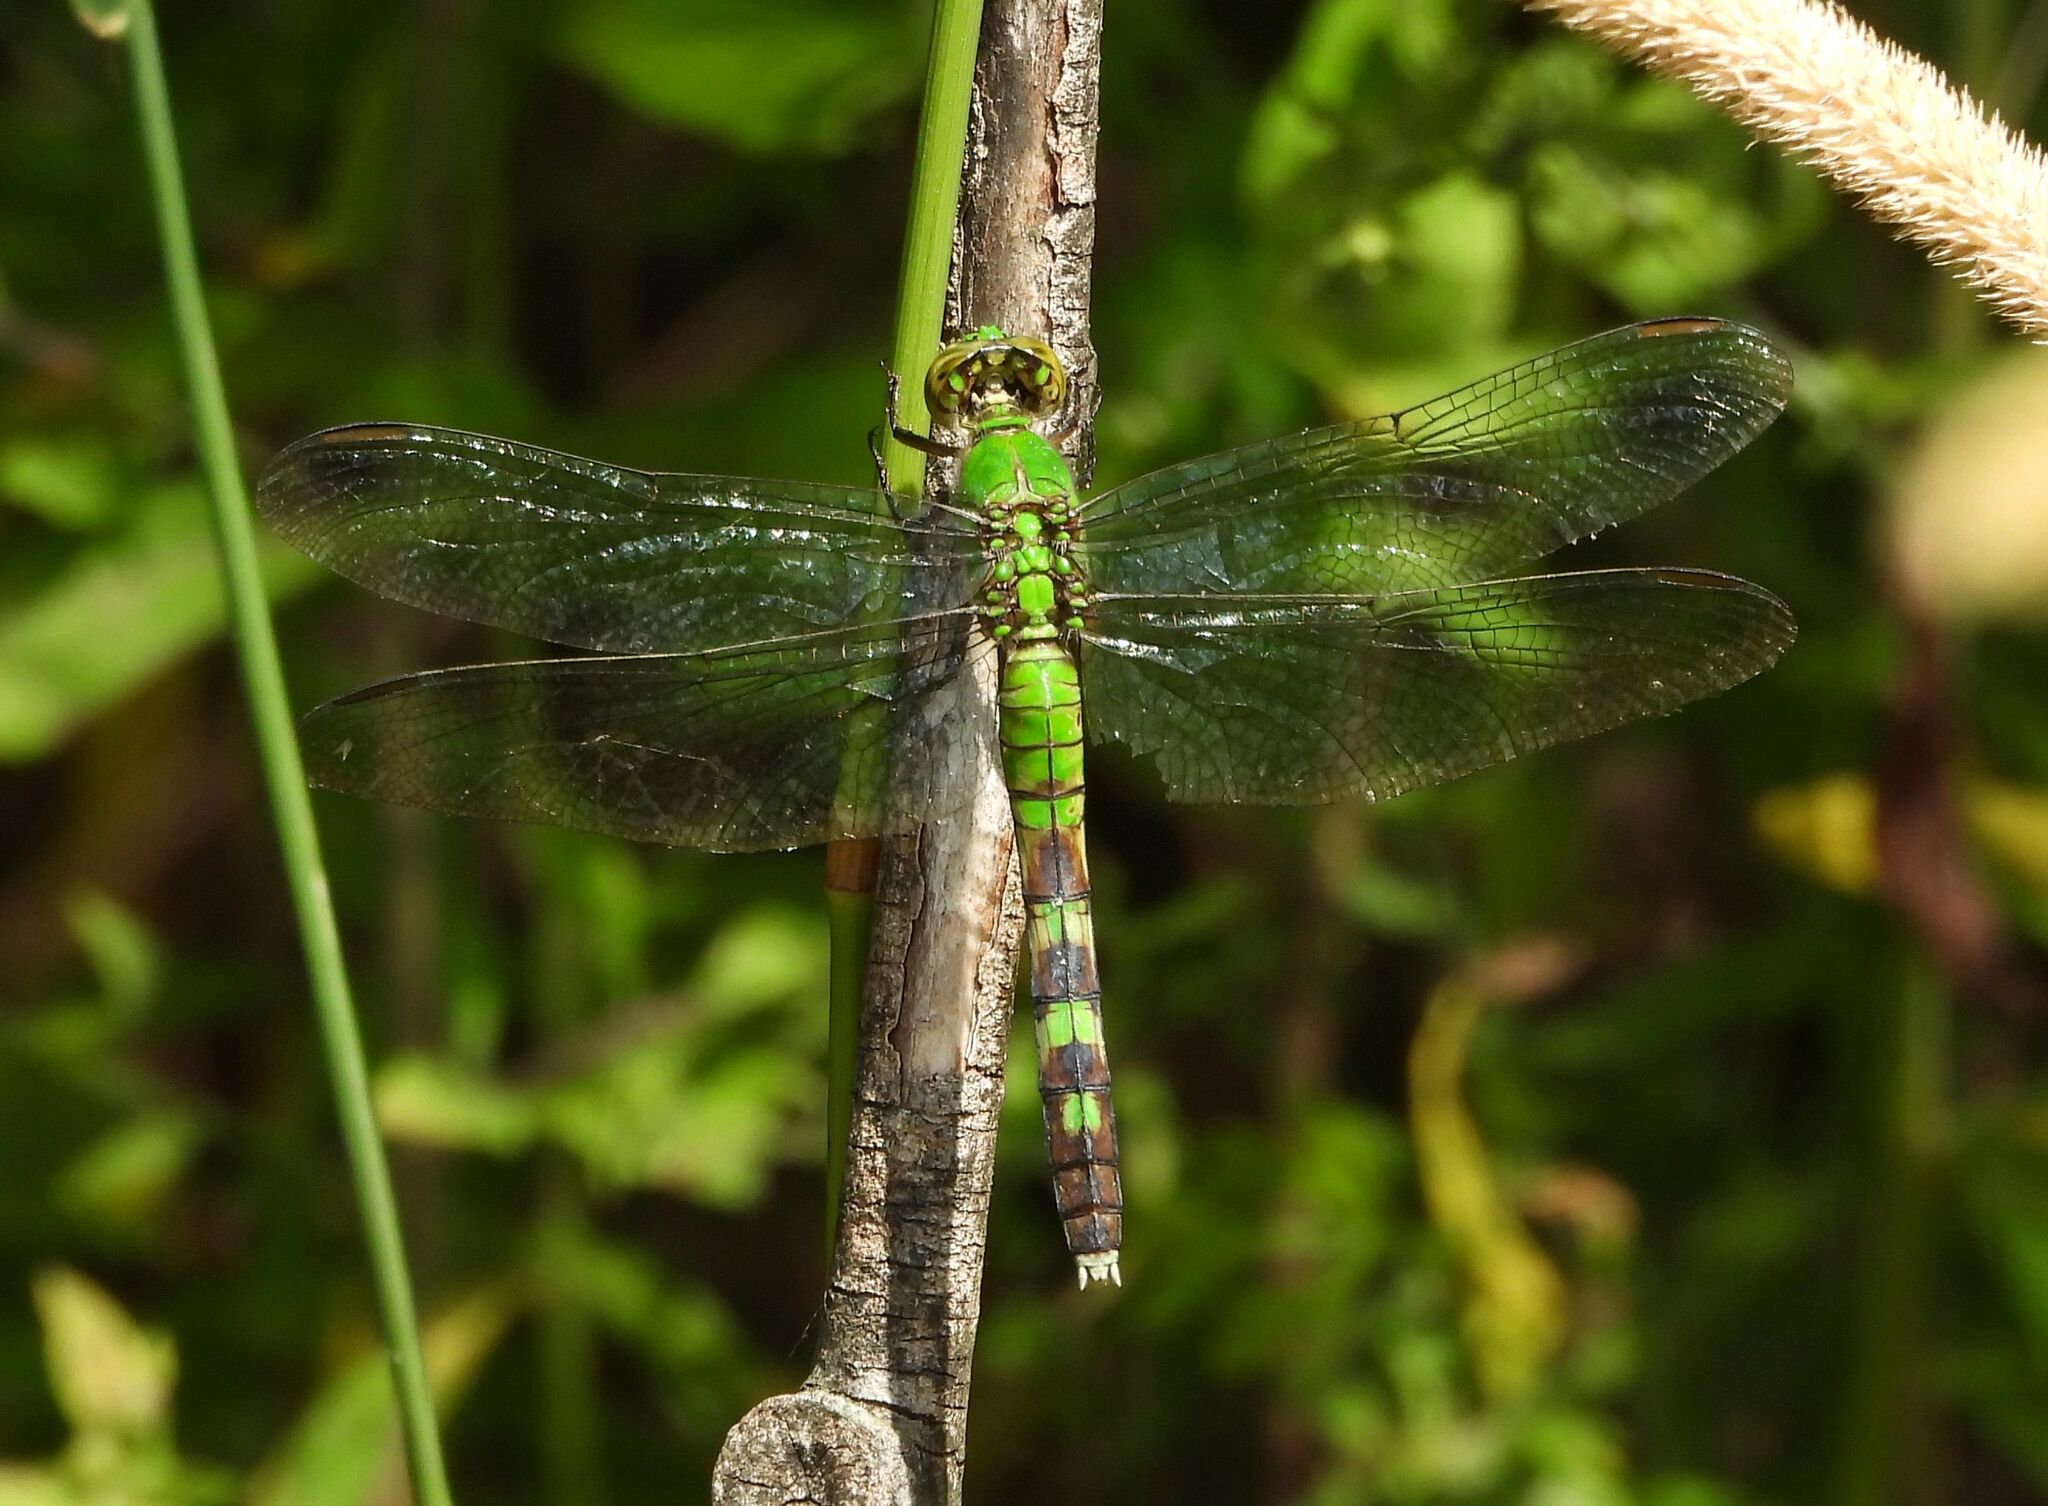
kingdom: Animalia
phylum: Arthropoda
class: Insecta
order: Odonata
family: Libellulidae
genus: Erythemis
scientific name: Erythemis simplicicollis
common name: Eastern pondhawk
